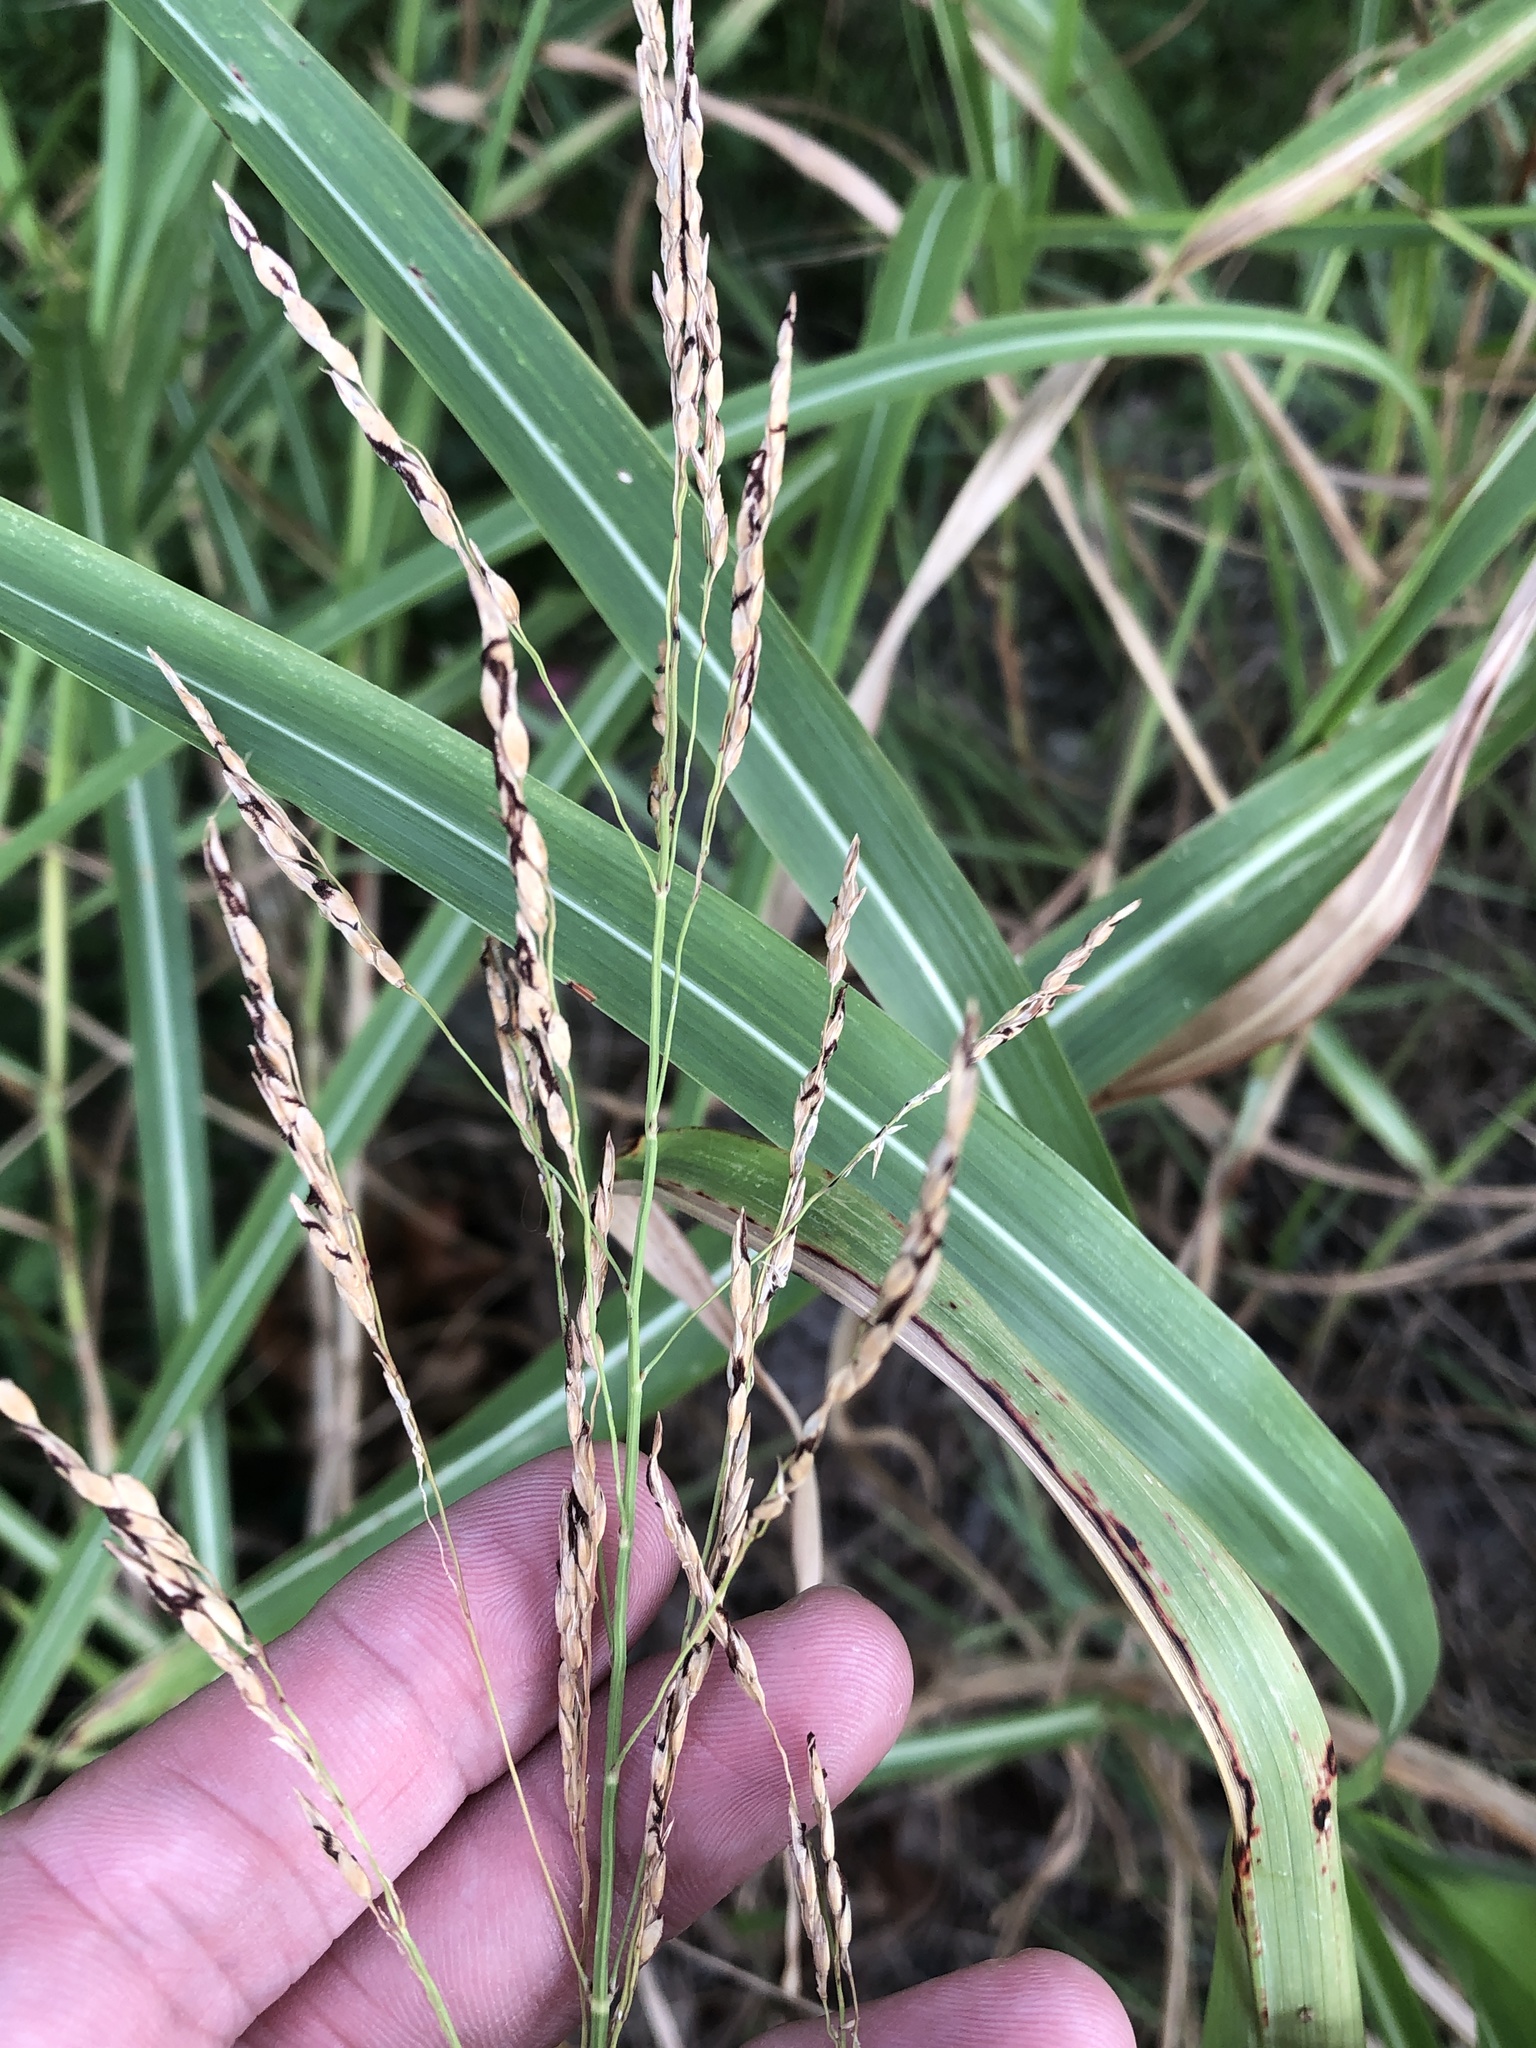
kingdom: Plantae
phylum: Tracheophyta
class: Liliopsida
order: Poales
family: Poaceae
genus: Sorghum
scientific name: Sorghum halepense
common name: Johnson-grass
